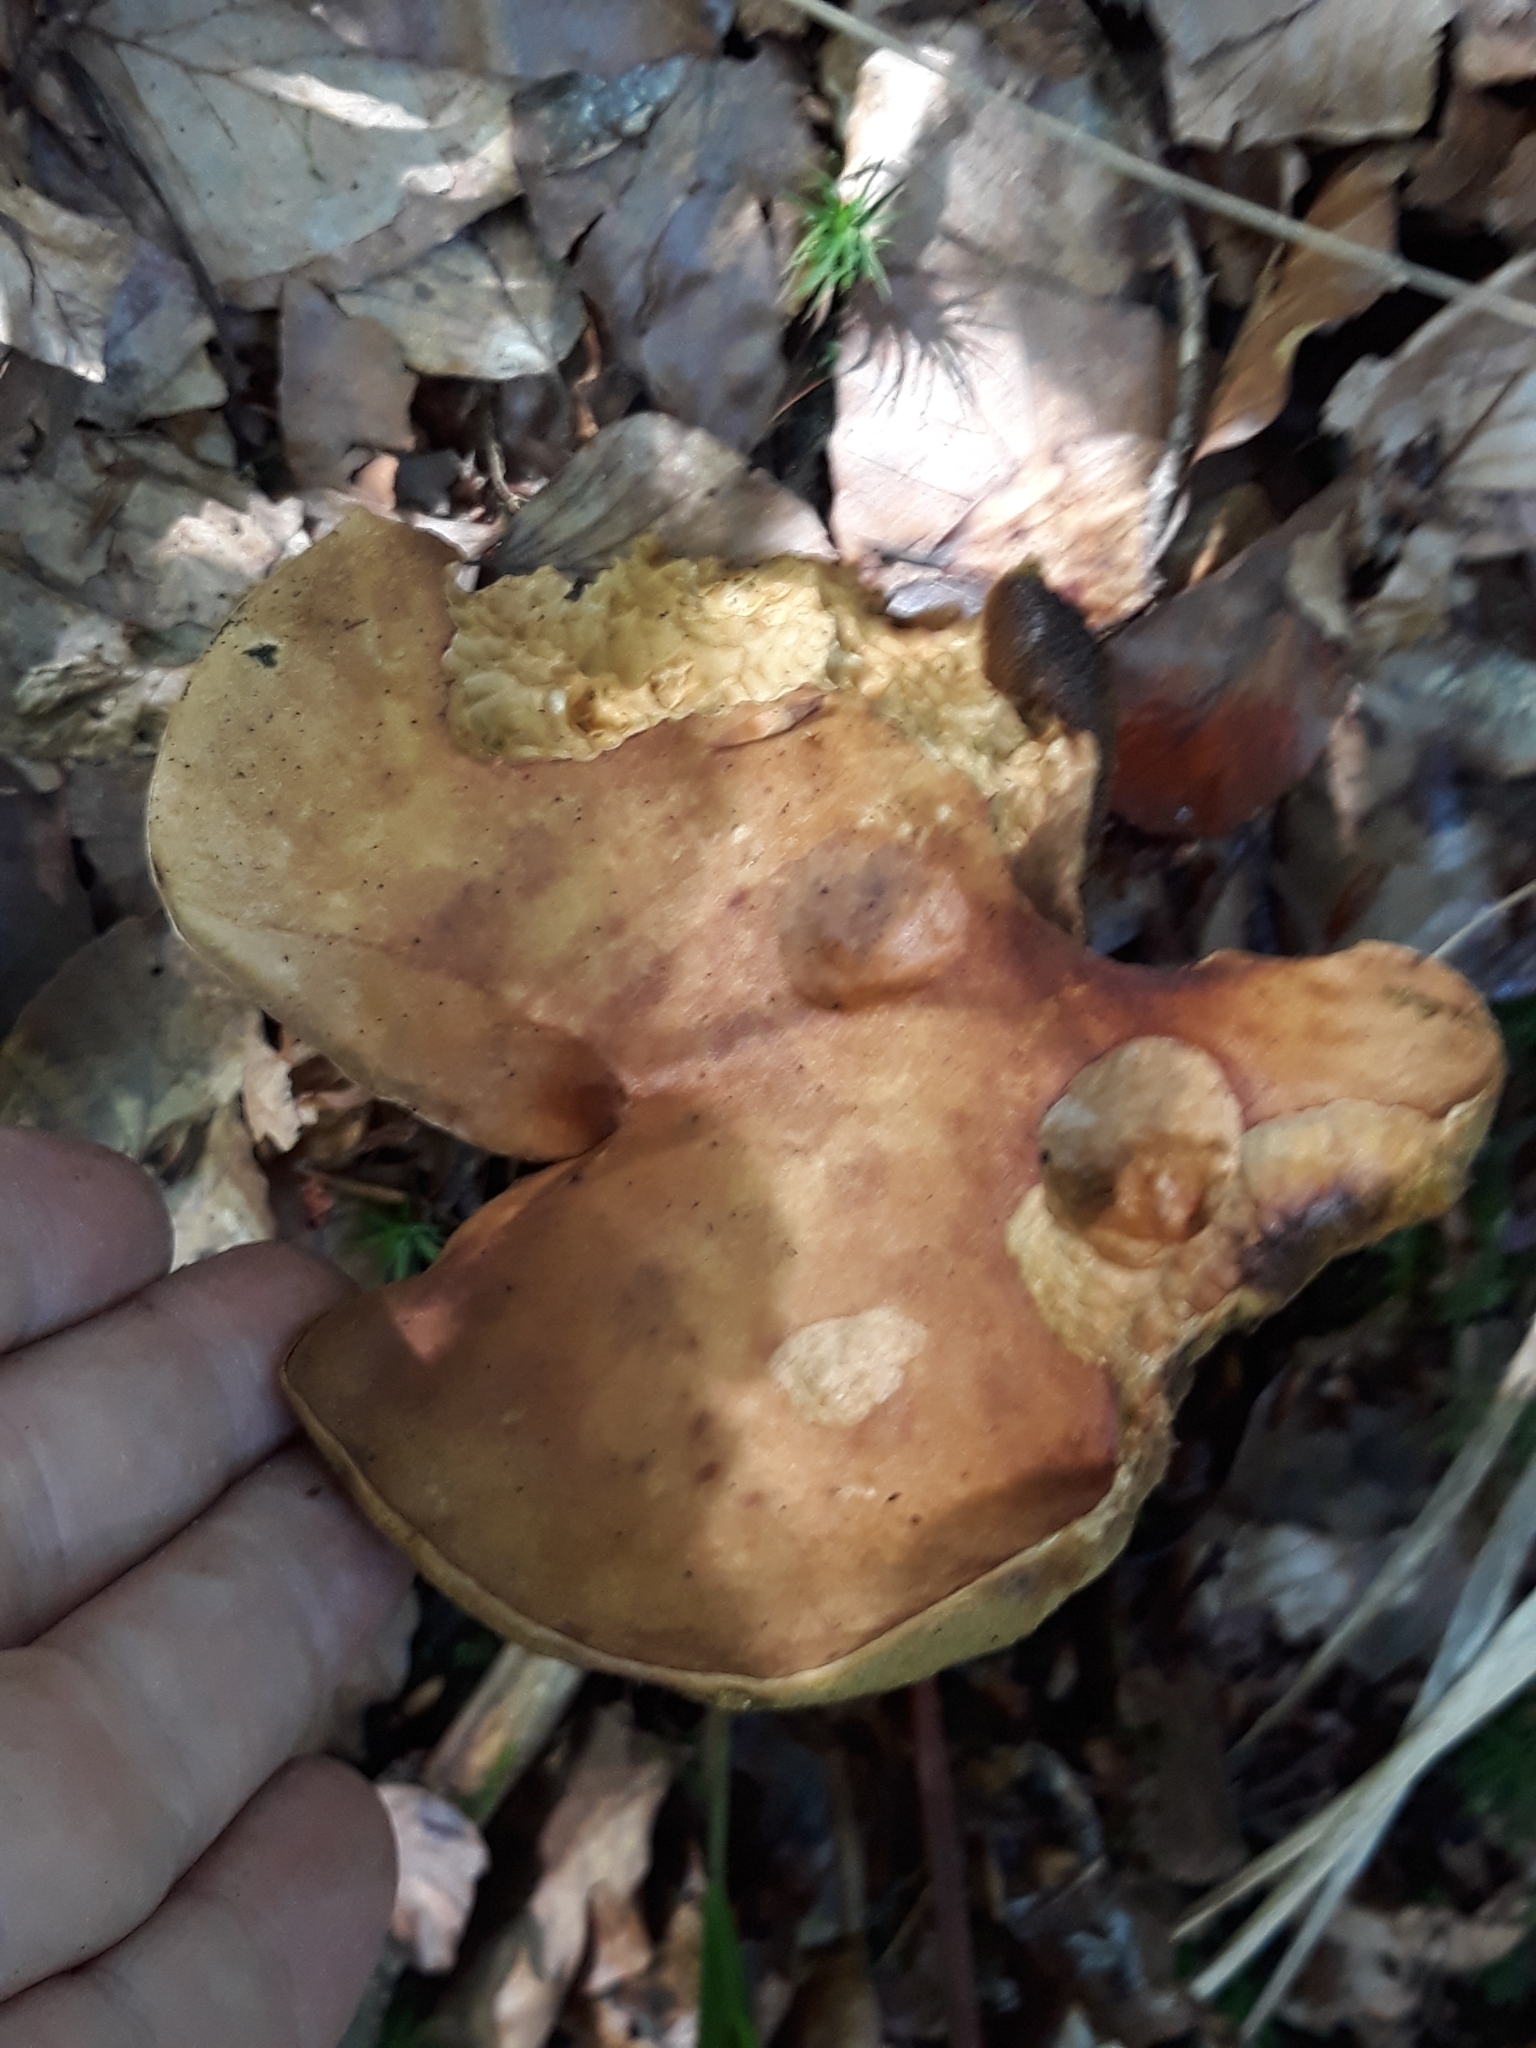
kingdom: Fungi
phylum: Basidiomycota
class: Agaricomycetes
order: Boletales
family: Boletaceae
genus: Boletus
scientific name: Boletus edulis
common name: Cep
